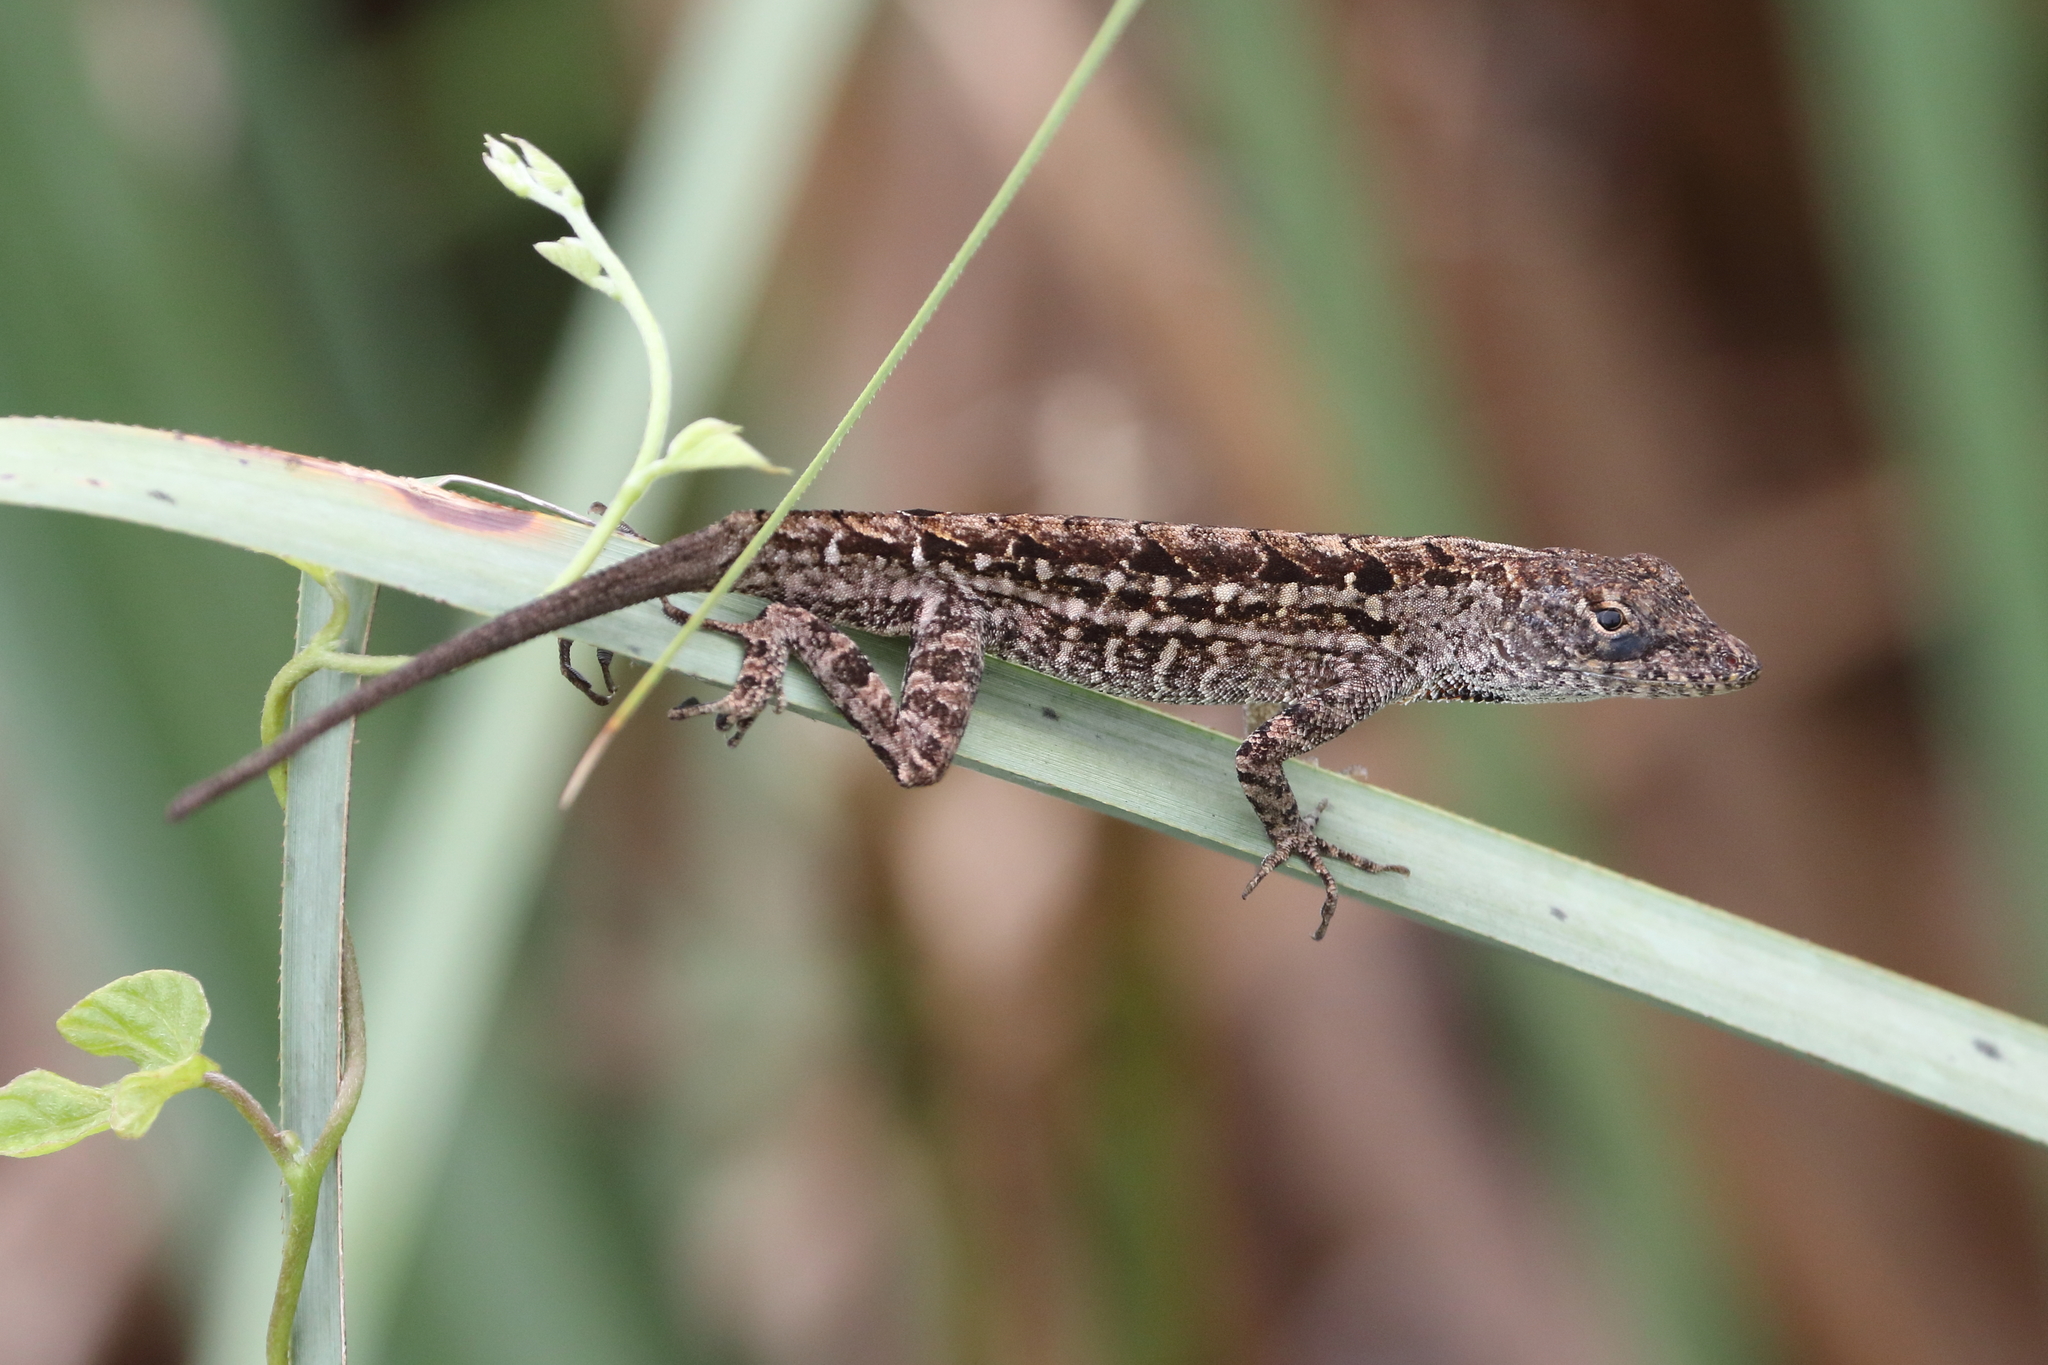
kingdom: Animalia
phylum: Chordata
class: Squamata
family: Dactyloidae
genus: Anolis
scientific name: Anolis sagrei
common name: Brown anole
